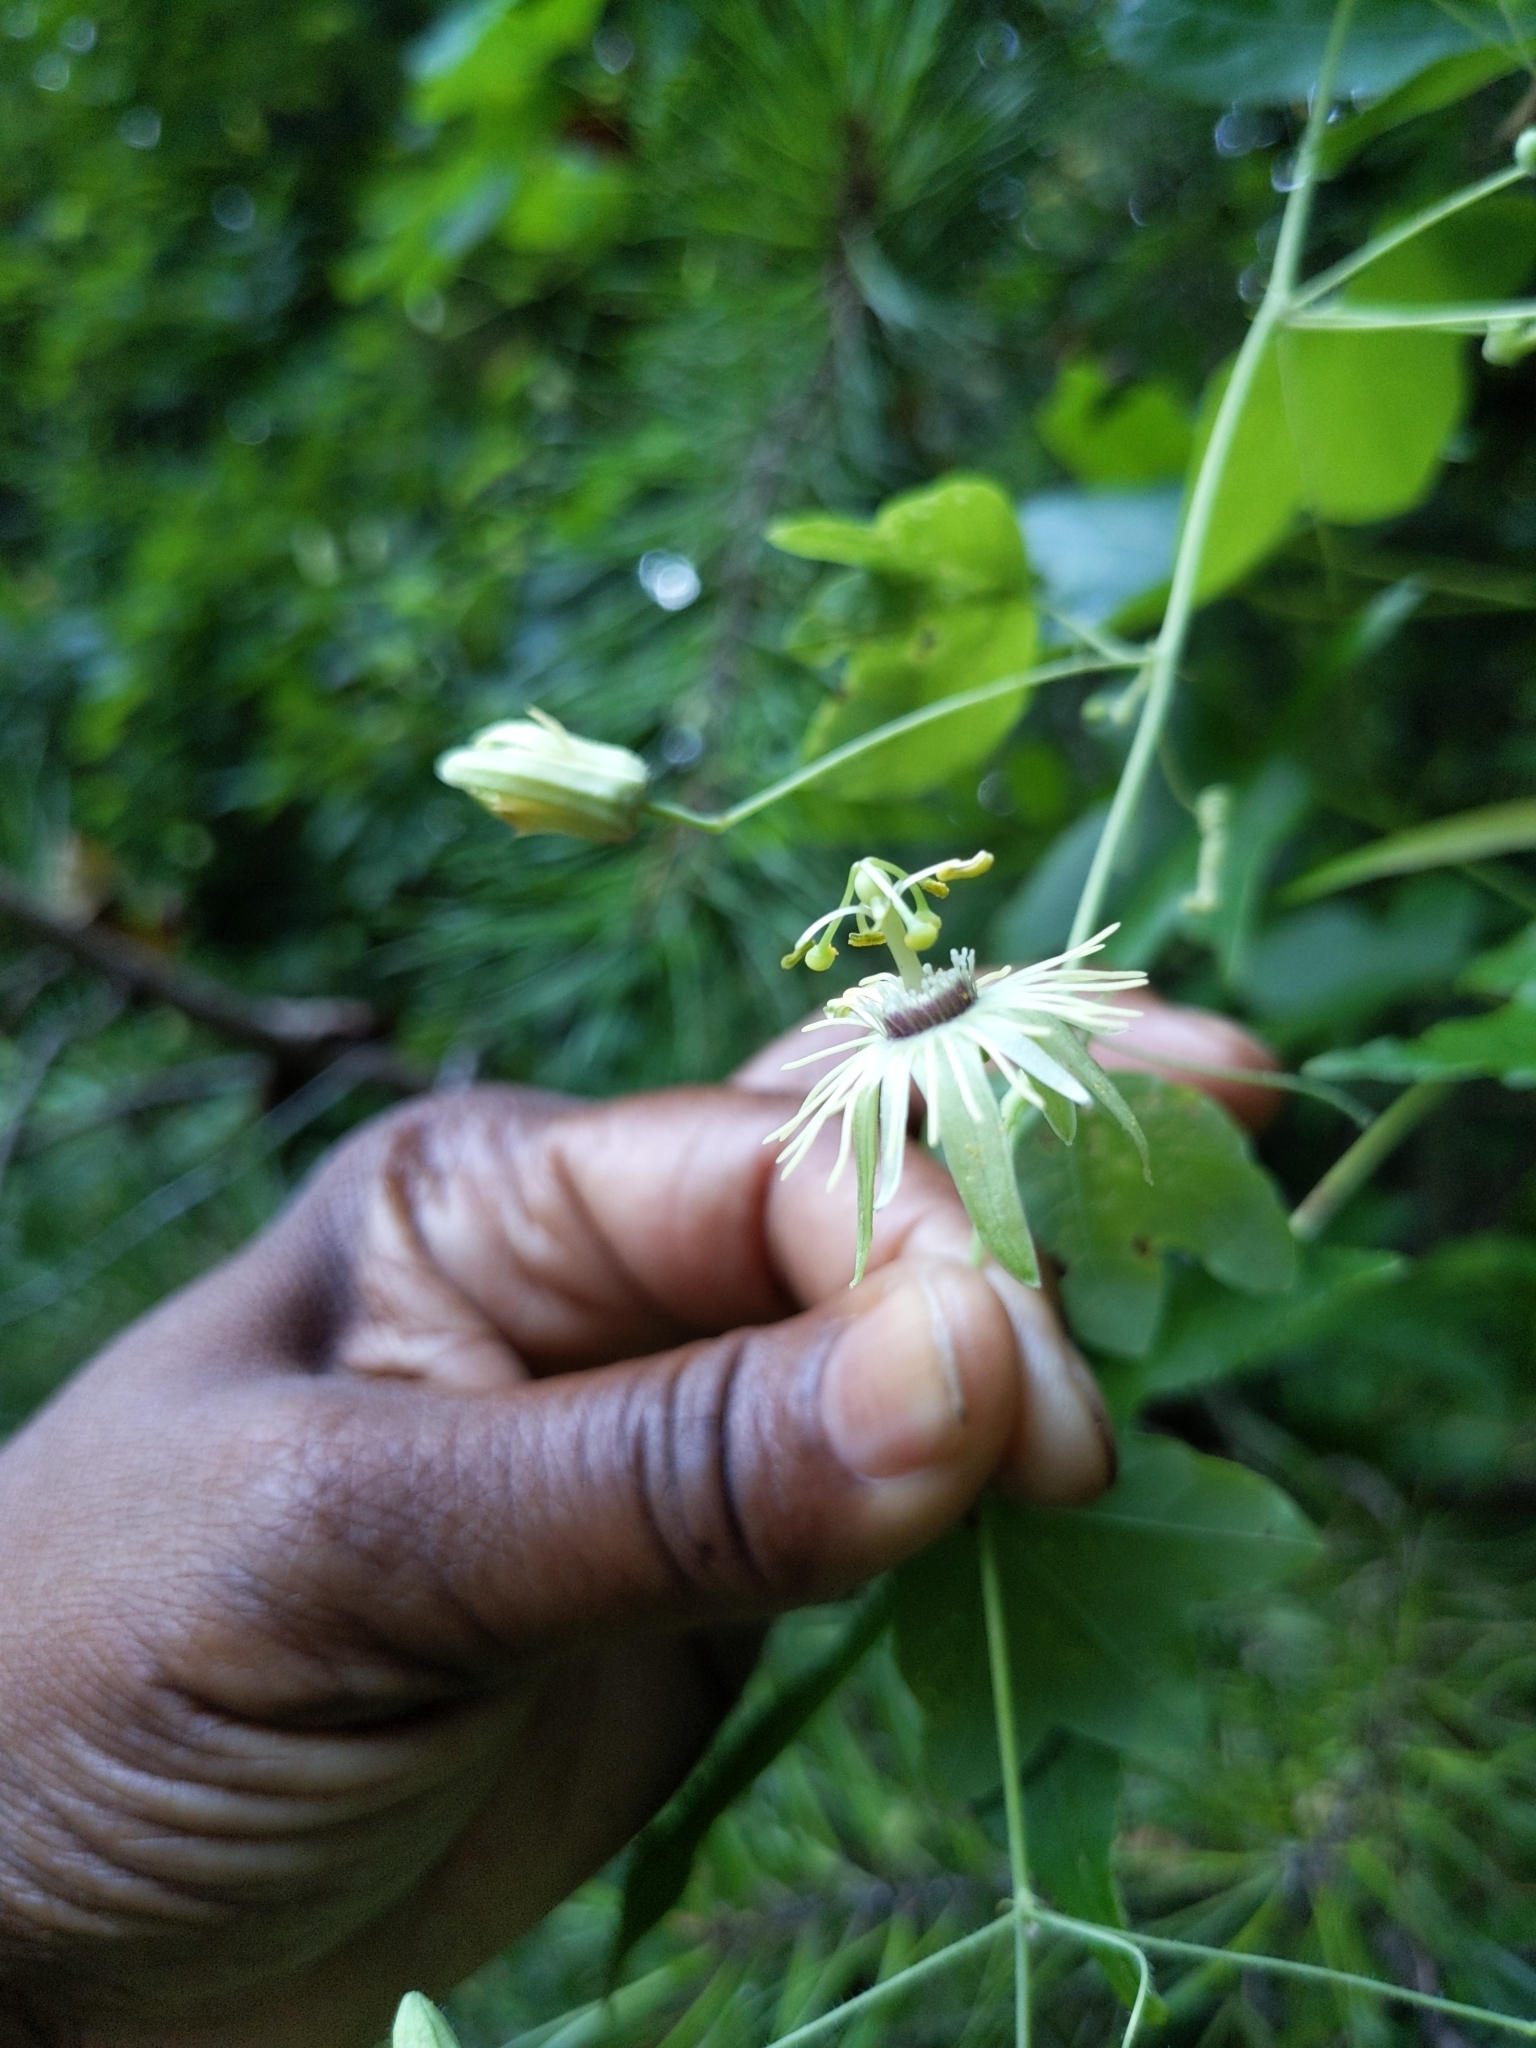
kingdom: Plantae
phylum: Tracheophyta
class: Magnoliopsida
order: Malpighiales
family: Passifloraceae
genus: Passiflora
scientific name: Passiflora lutea
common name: Yellow passionflower
